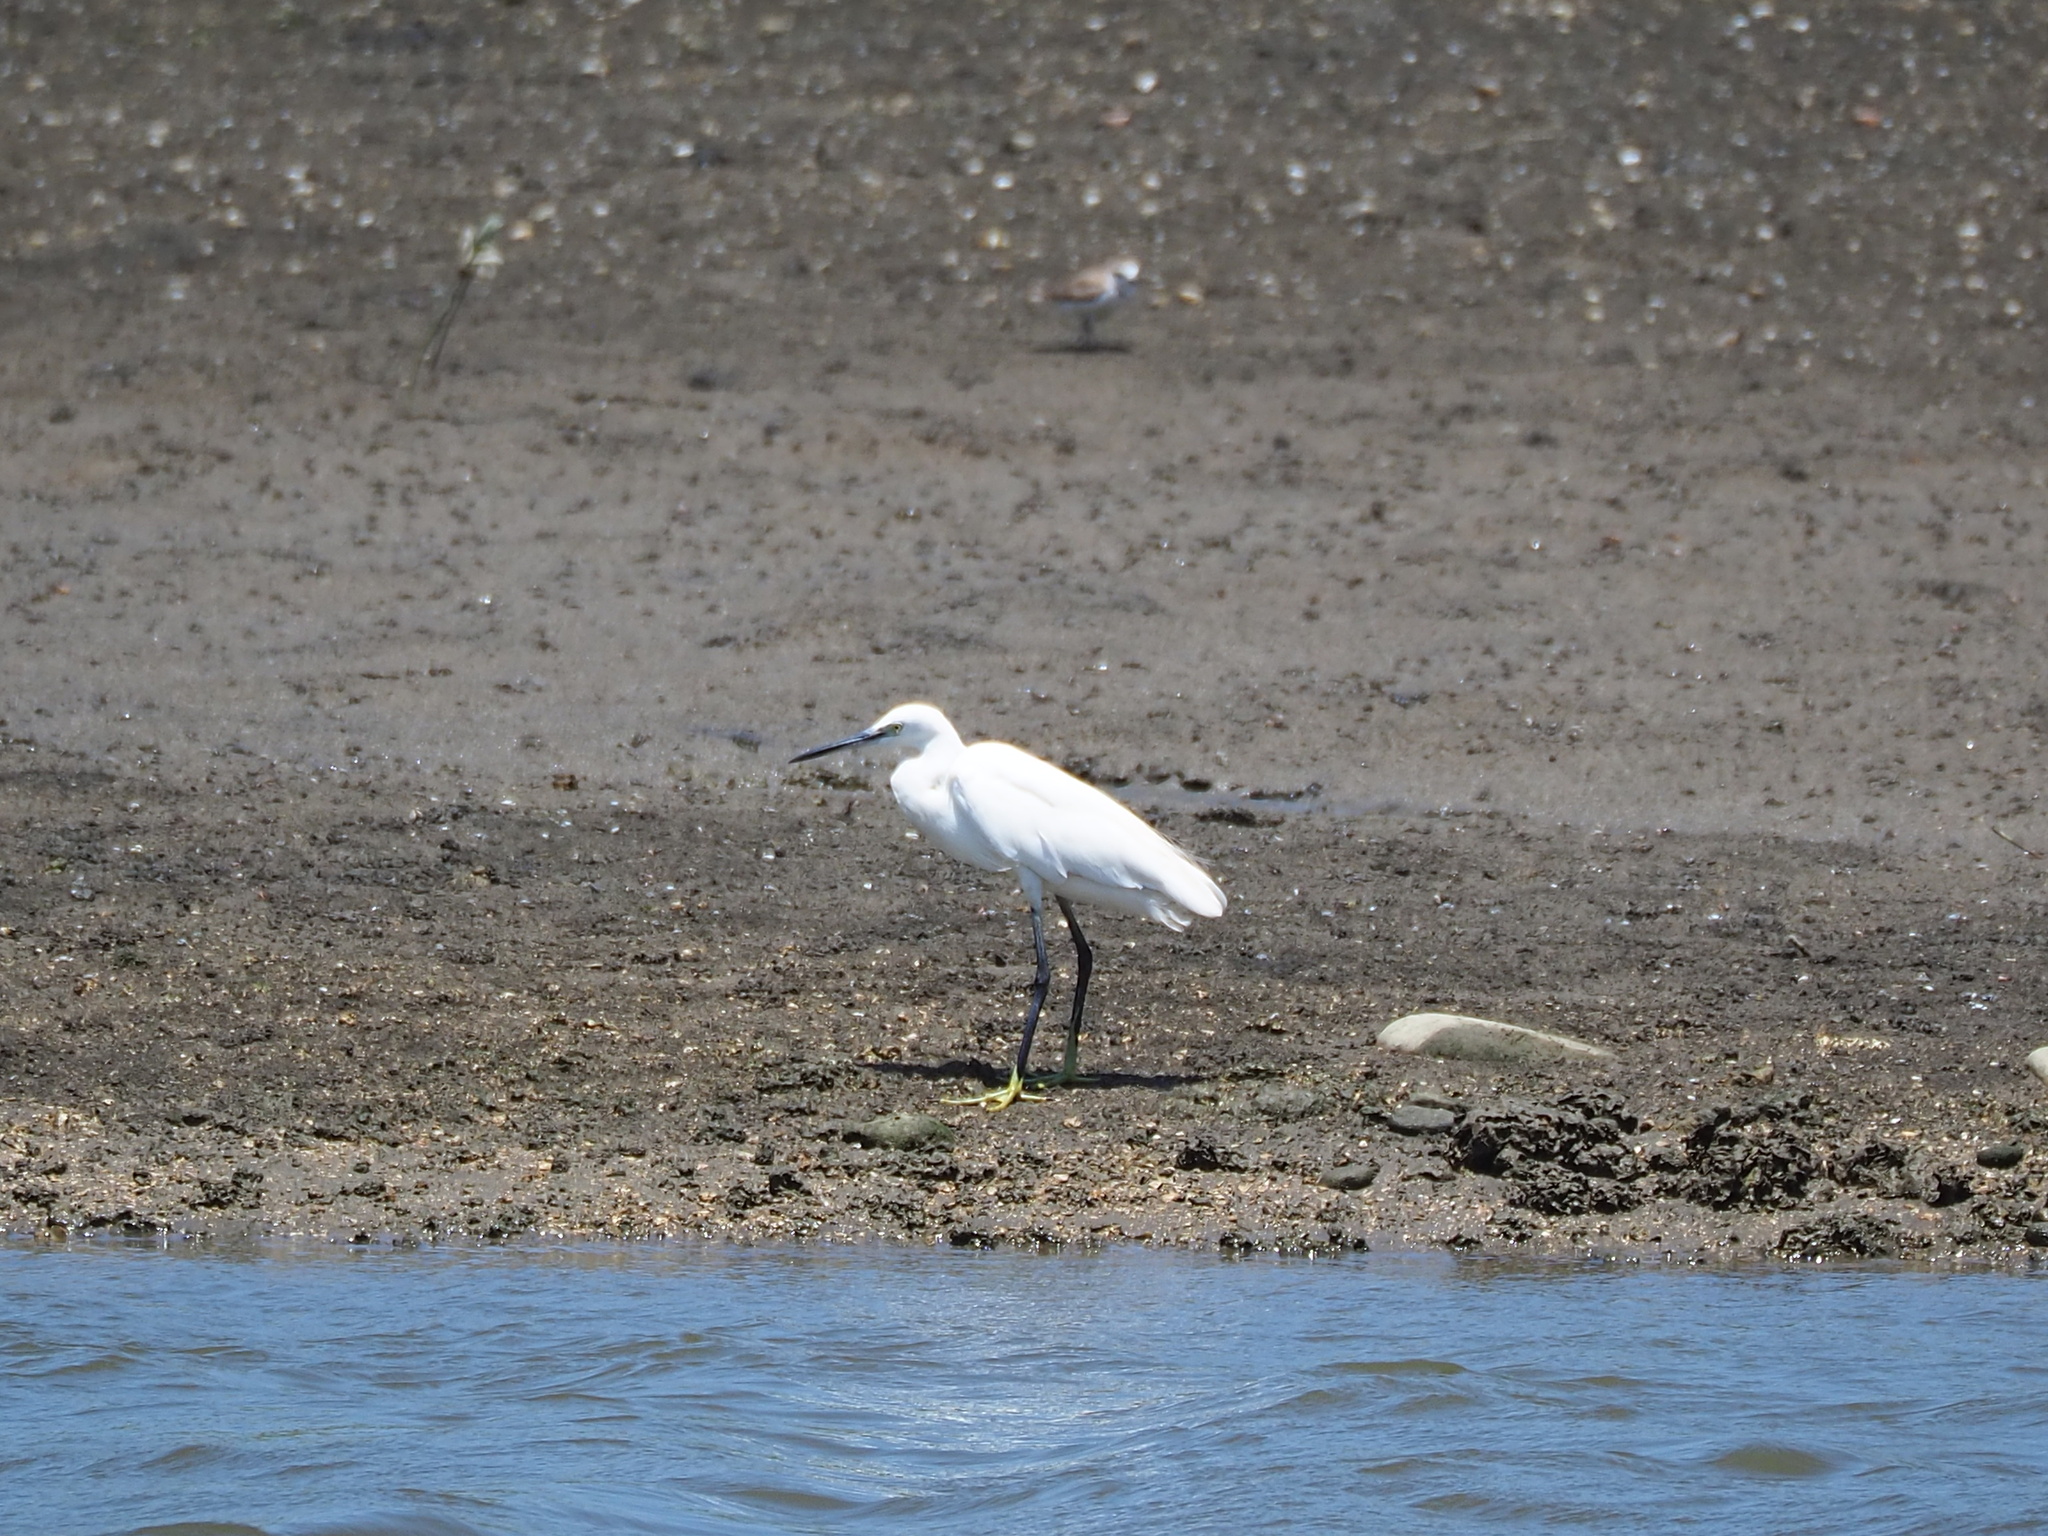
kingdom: Animalia
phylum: Chordata
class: Aves
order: Pelecaniformes
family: Ardeidae
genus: Egretta
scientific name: Egretta garzetta
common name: Little egret
